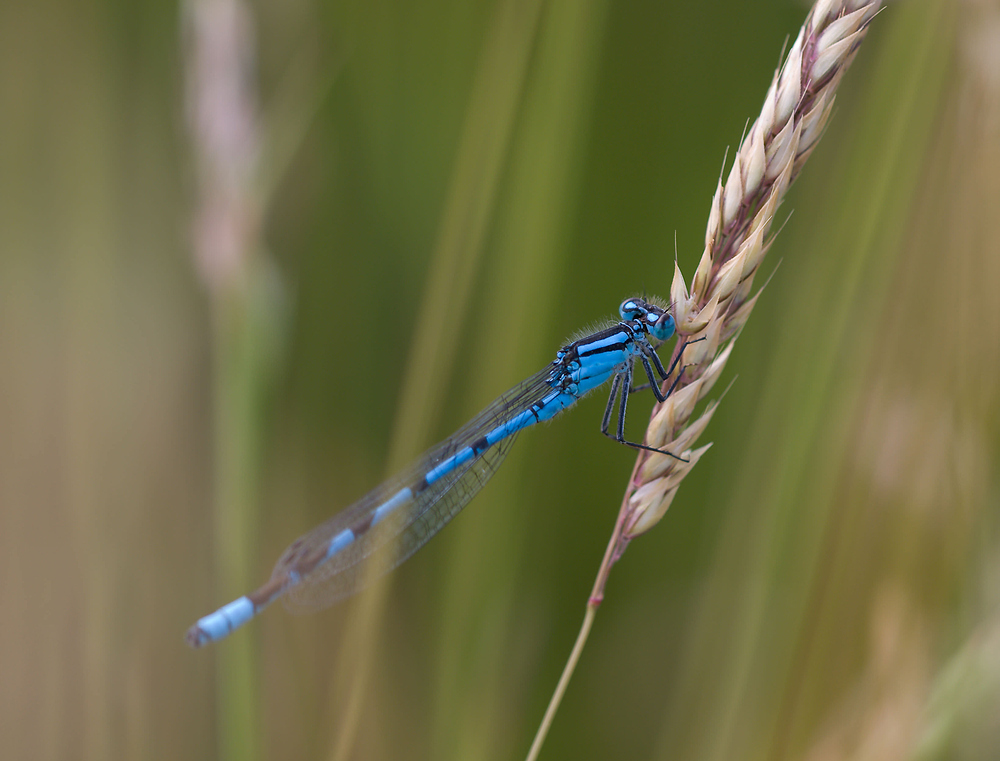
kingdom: Animalia
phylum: Arthropoda
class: Insecta
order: Odonata
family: Coenagrionidae
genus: Enallagma
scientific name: Enallagma cyathigerum
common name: Common blue damselfly
